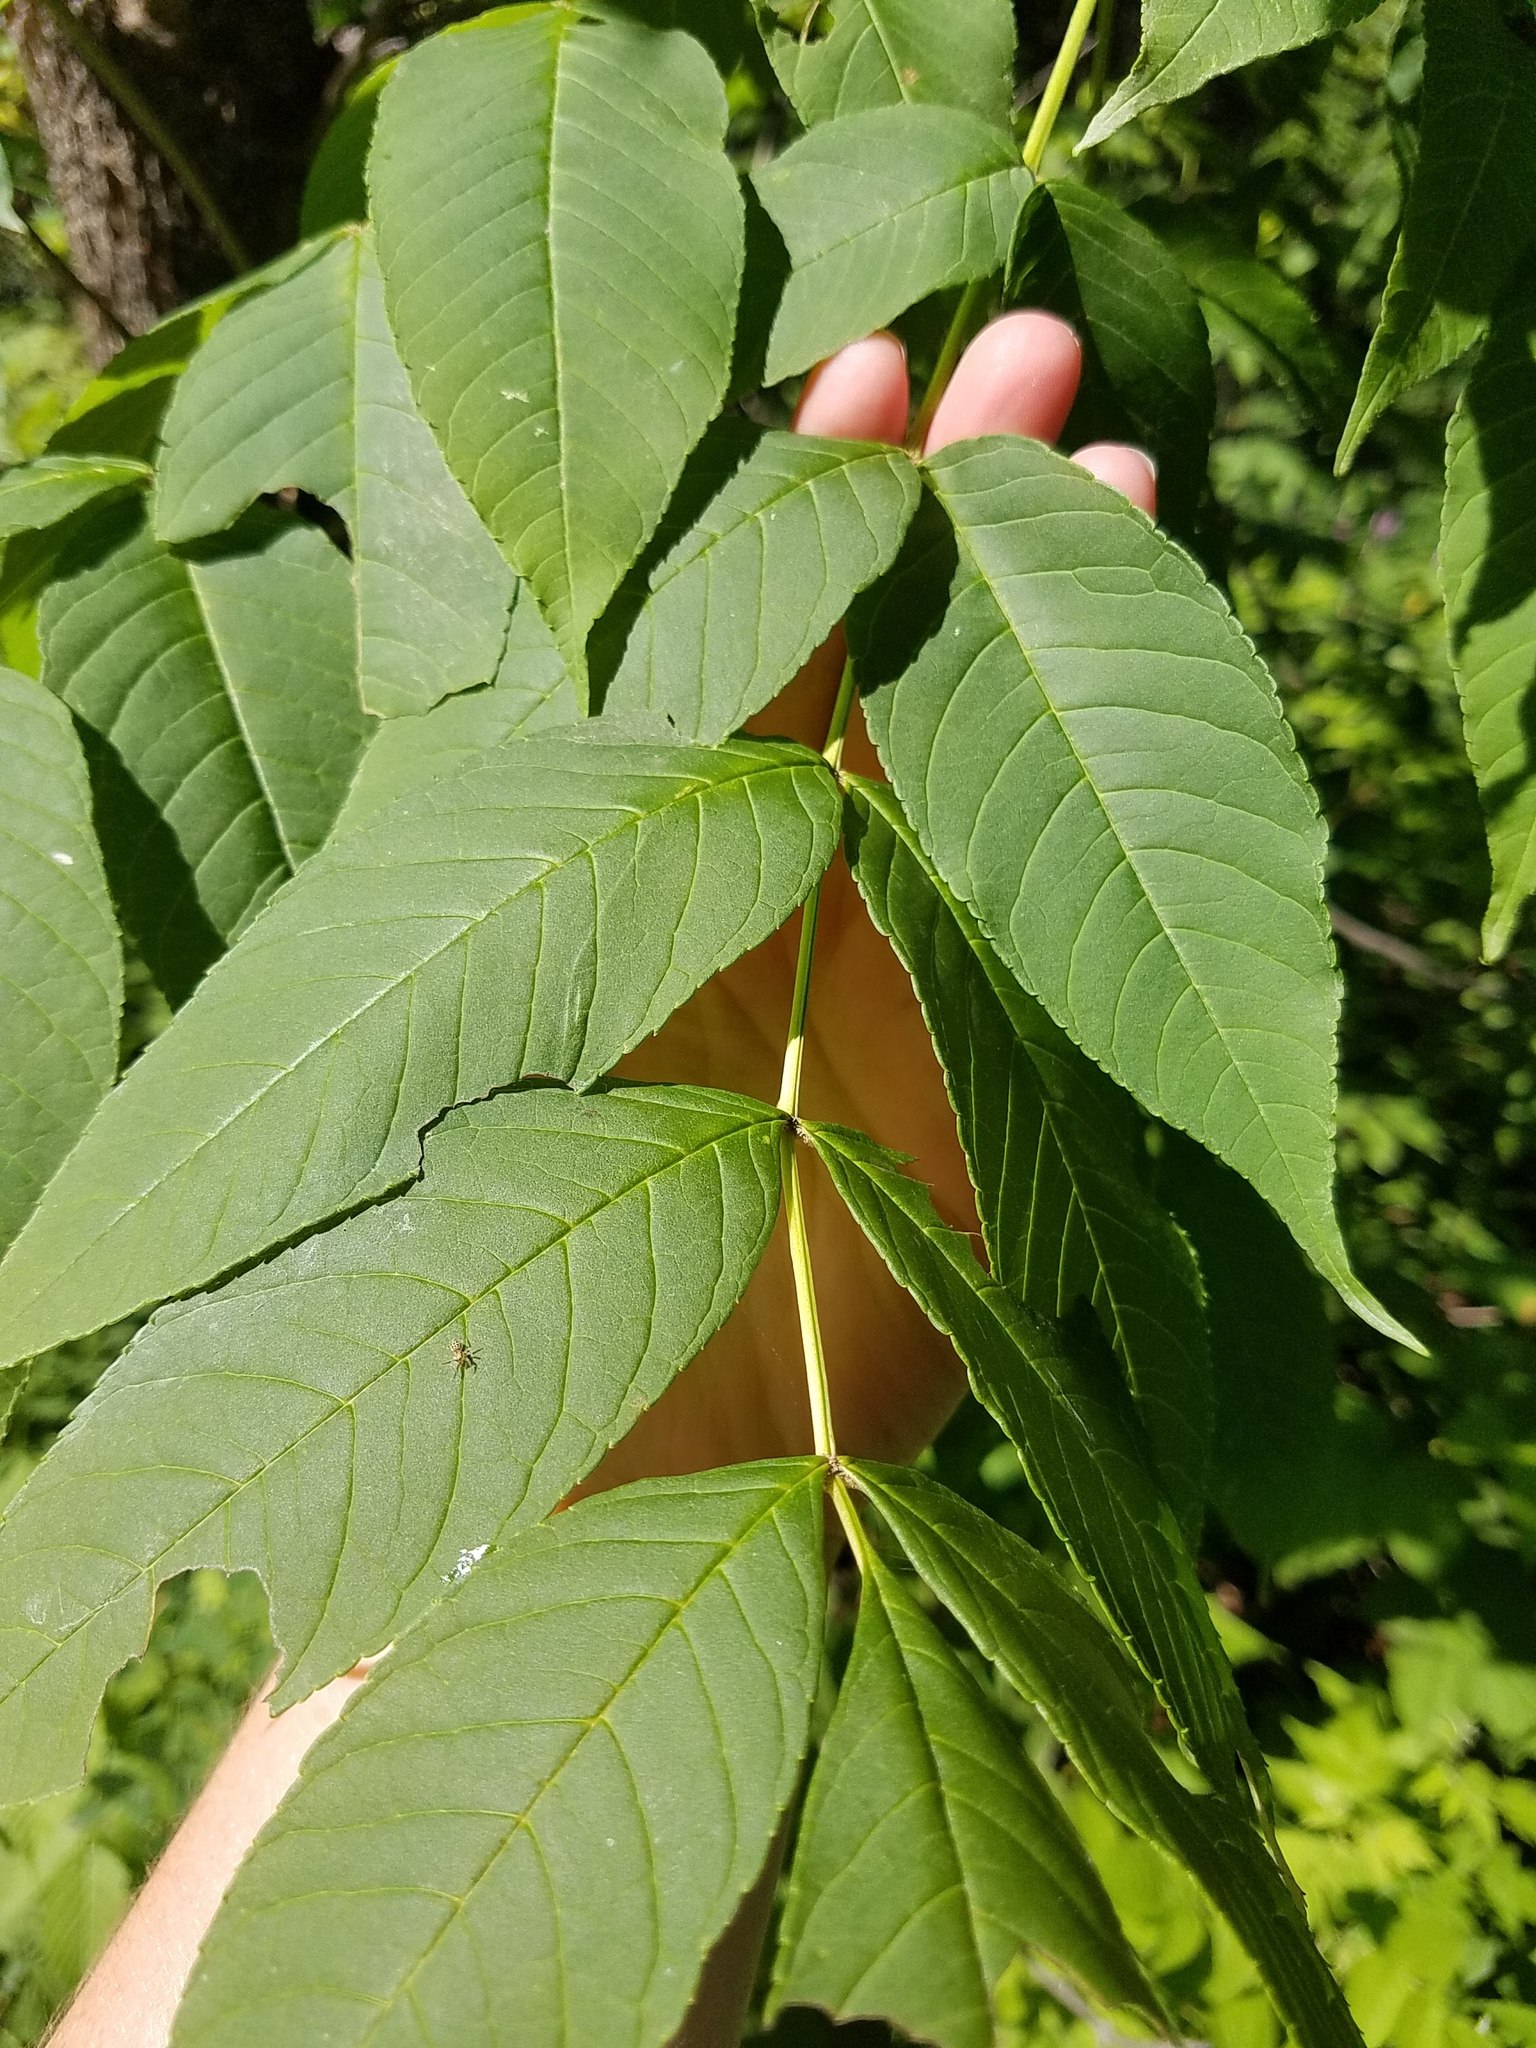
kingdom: Plantae
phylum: Tracheophyta
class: Magnoliopsida
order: Lamiales
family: Oleaceae
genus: Fraxinus
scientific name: Fraxinus nigra
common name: Black ash
